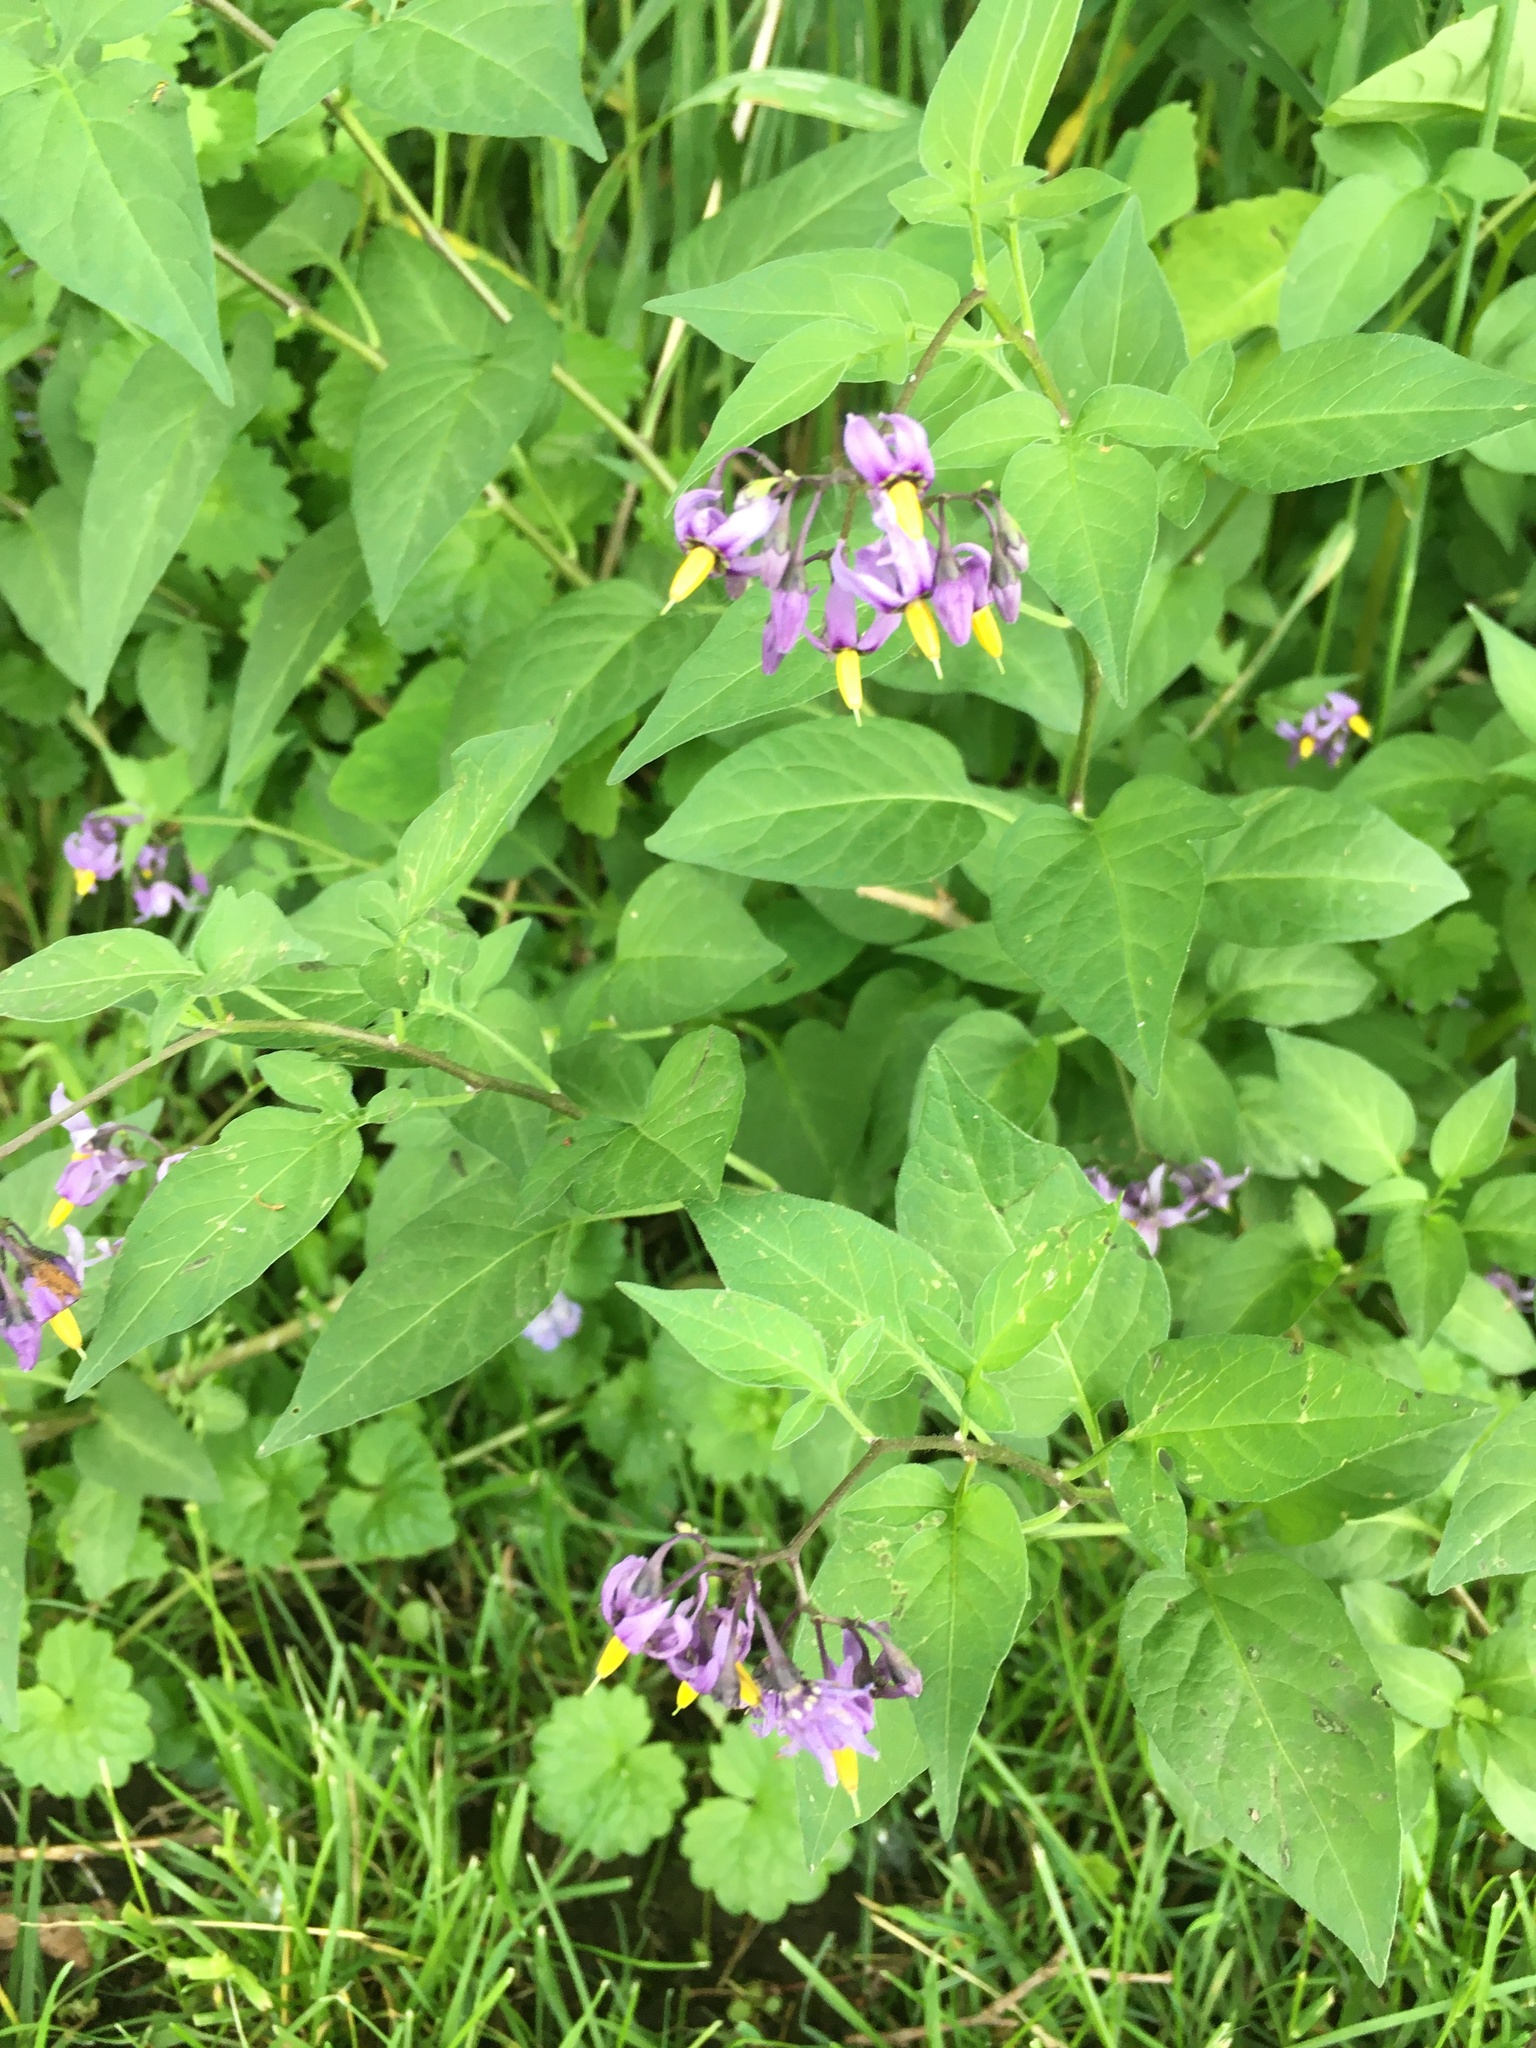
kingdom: Plantae
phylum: Tracheophyta
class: Magnoliopsida
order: Solanales
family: Solanaceae
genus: Solanum
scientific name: Solanum dulcamara
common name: Climbing nightshade
